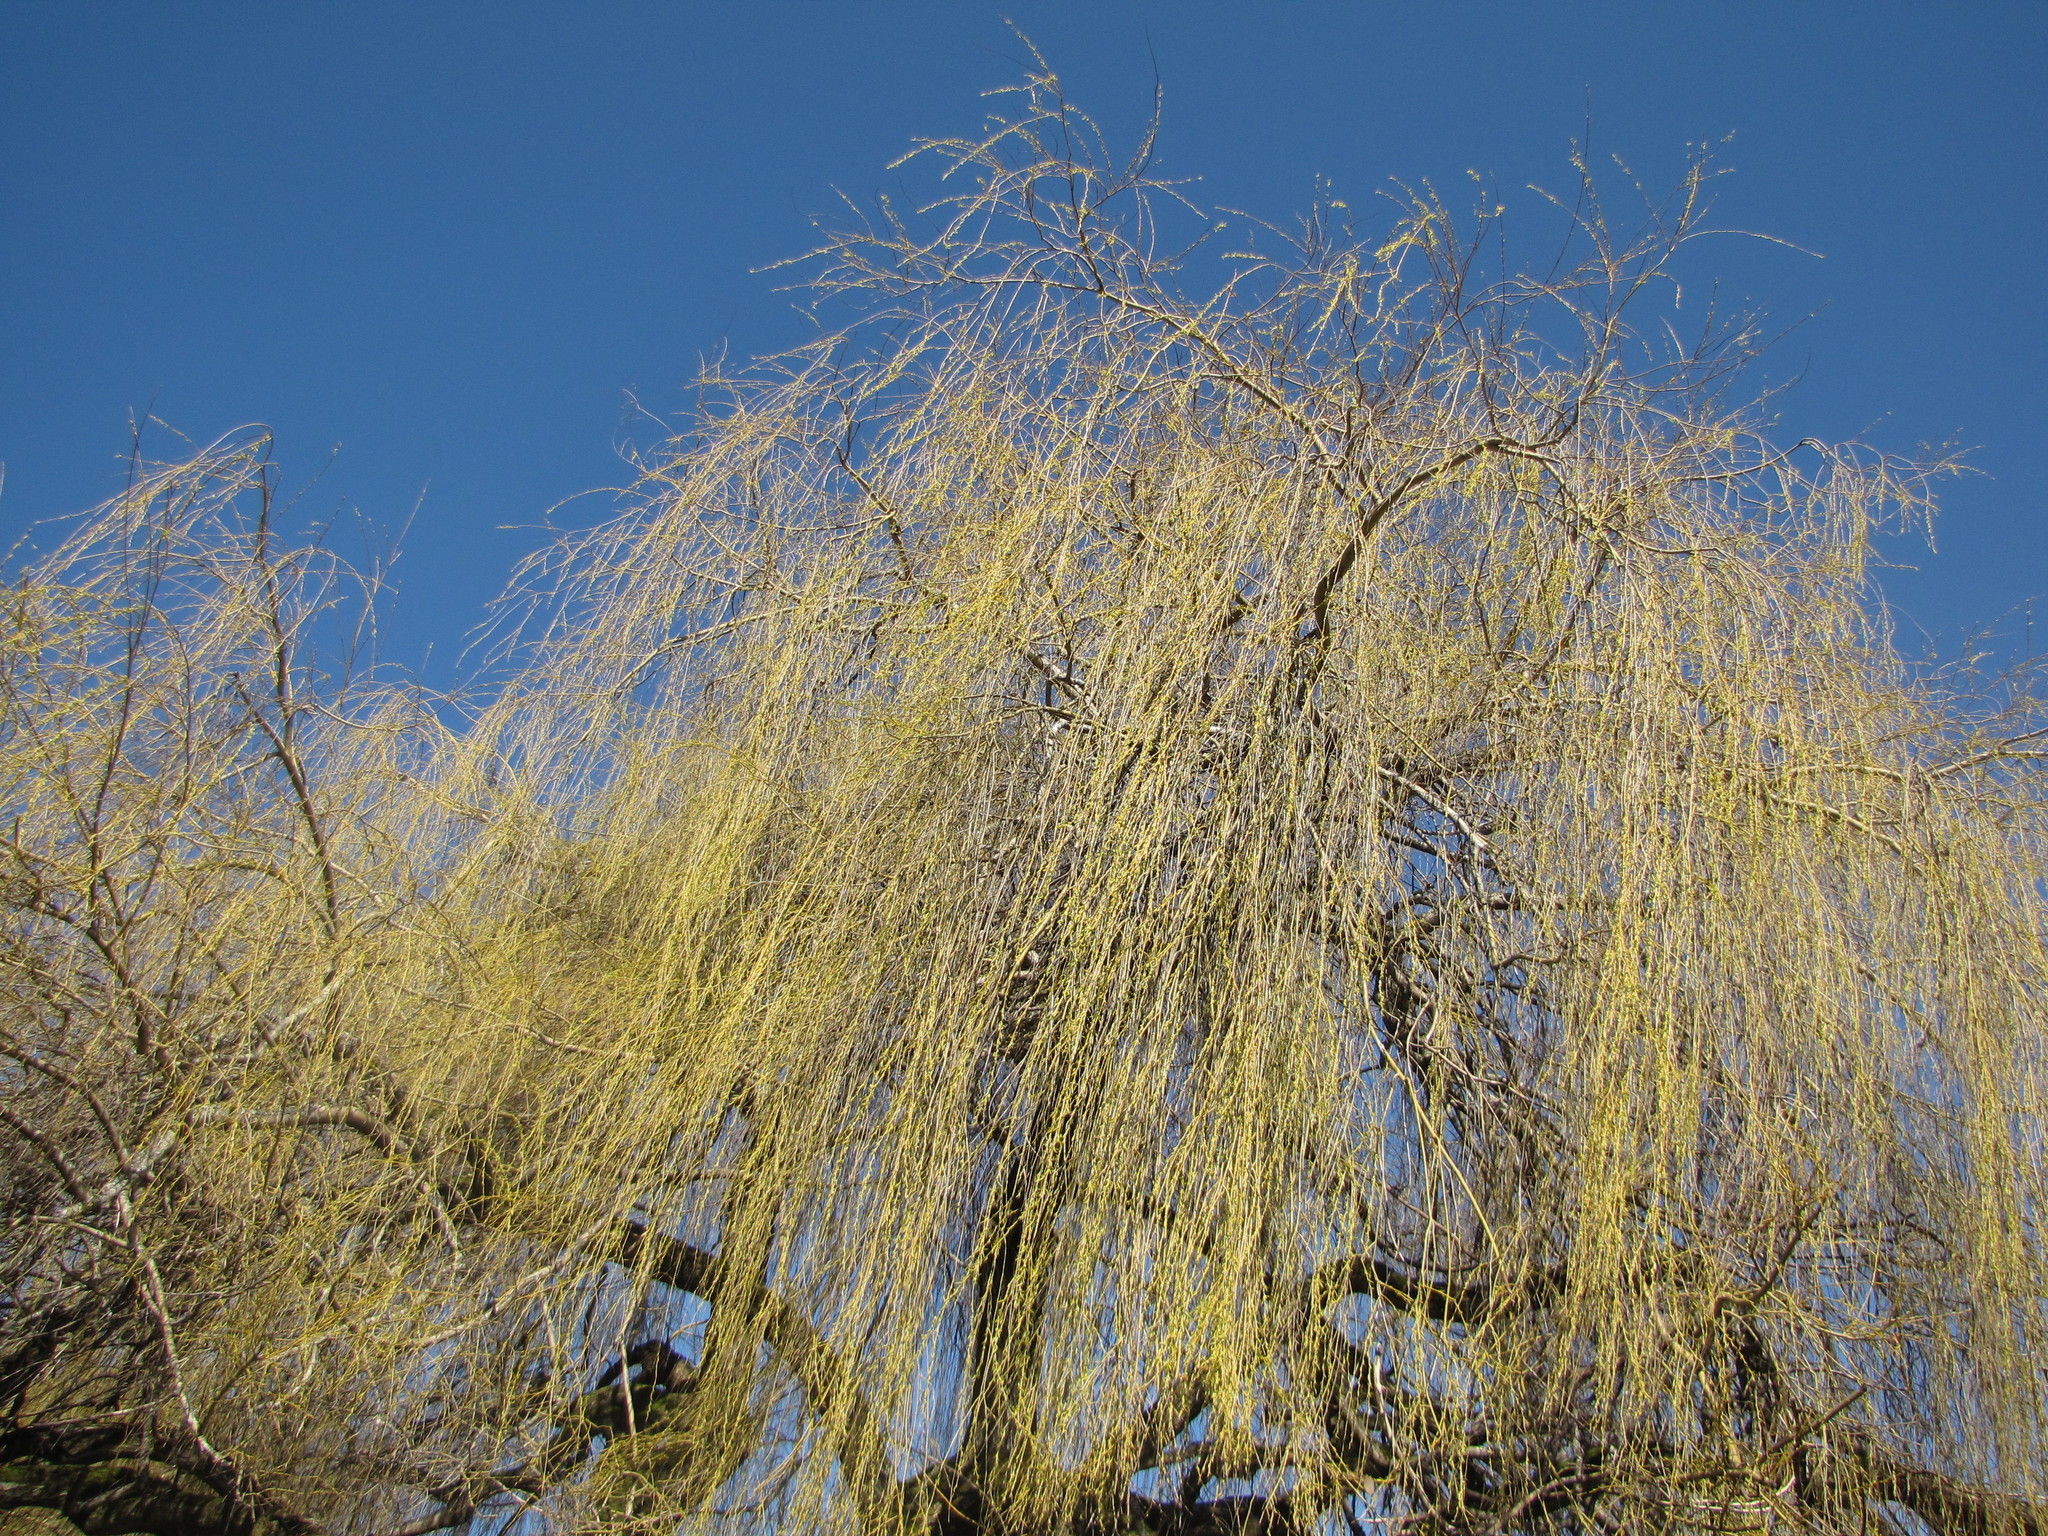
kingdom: Plantae
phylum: Tracheophyta
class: Magnoliopsida
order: Malpighiales
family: Salicaceae
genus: Salix
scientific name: Salix pendulina
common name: Wisconsin weeping willow
